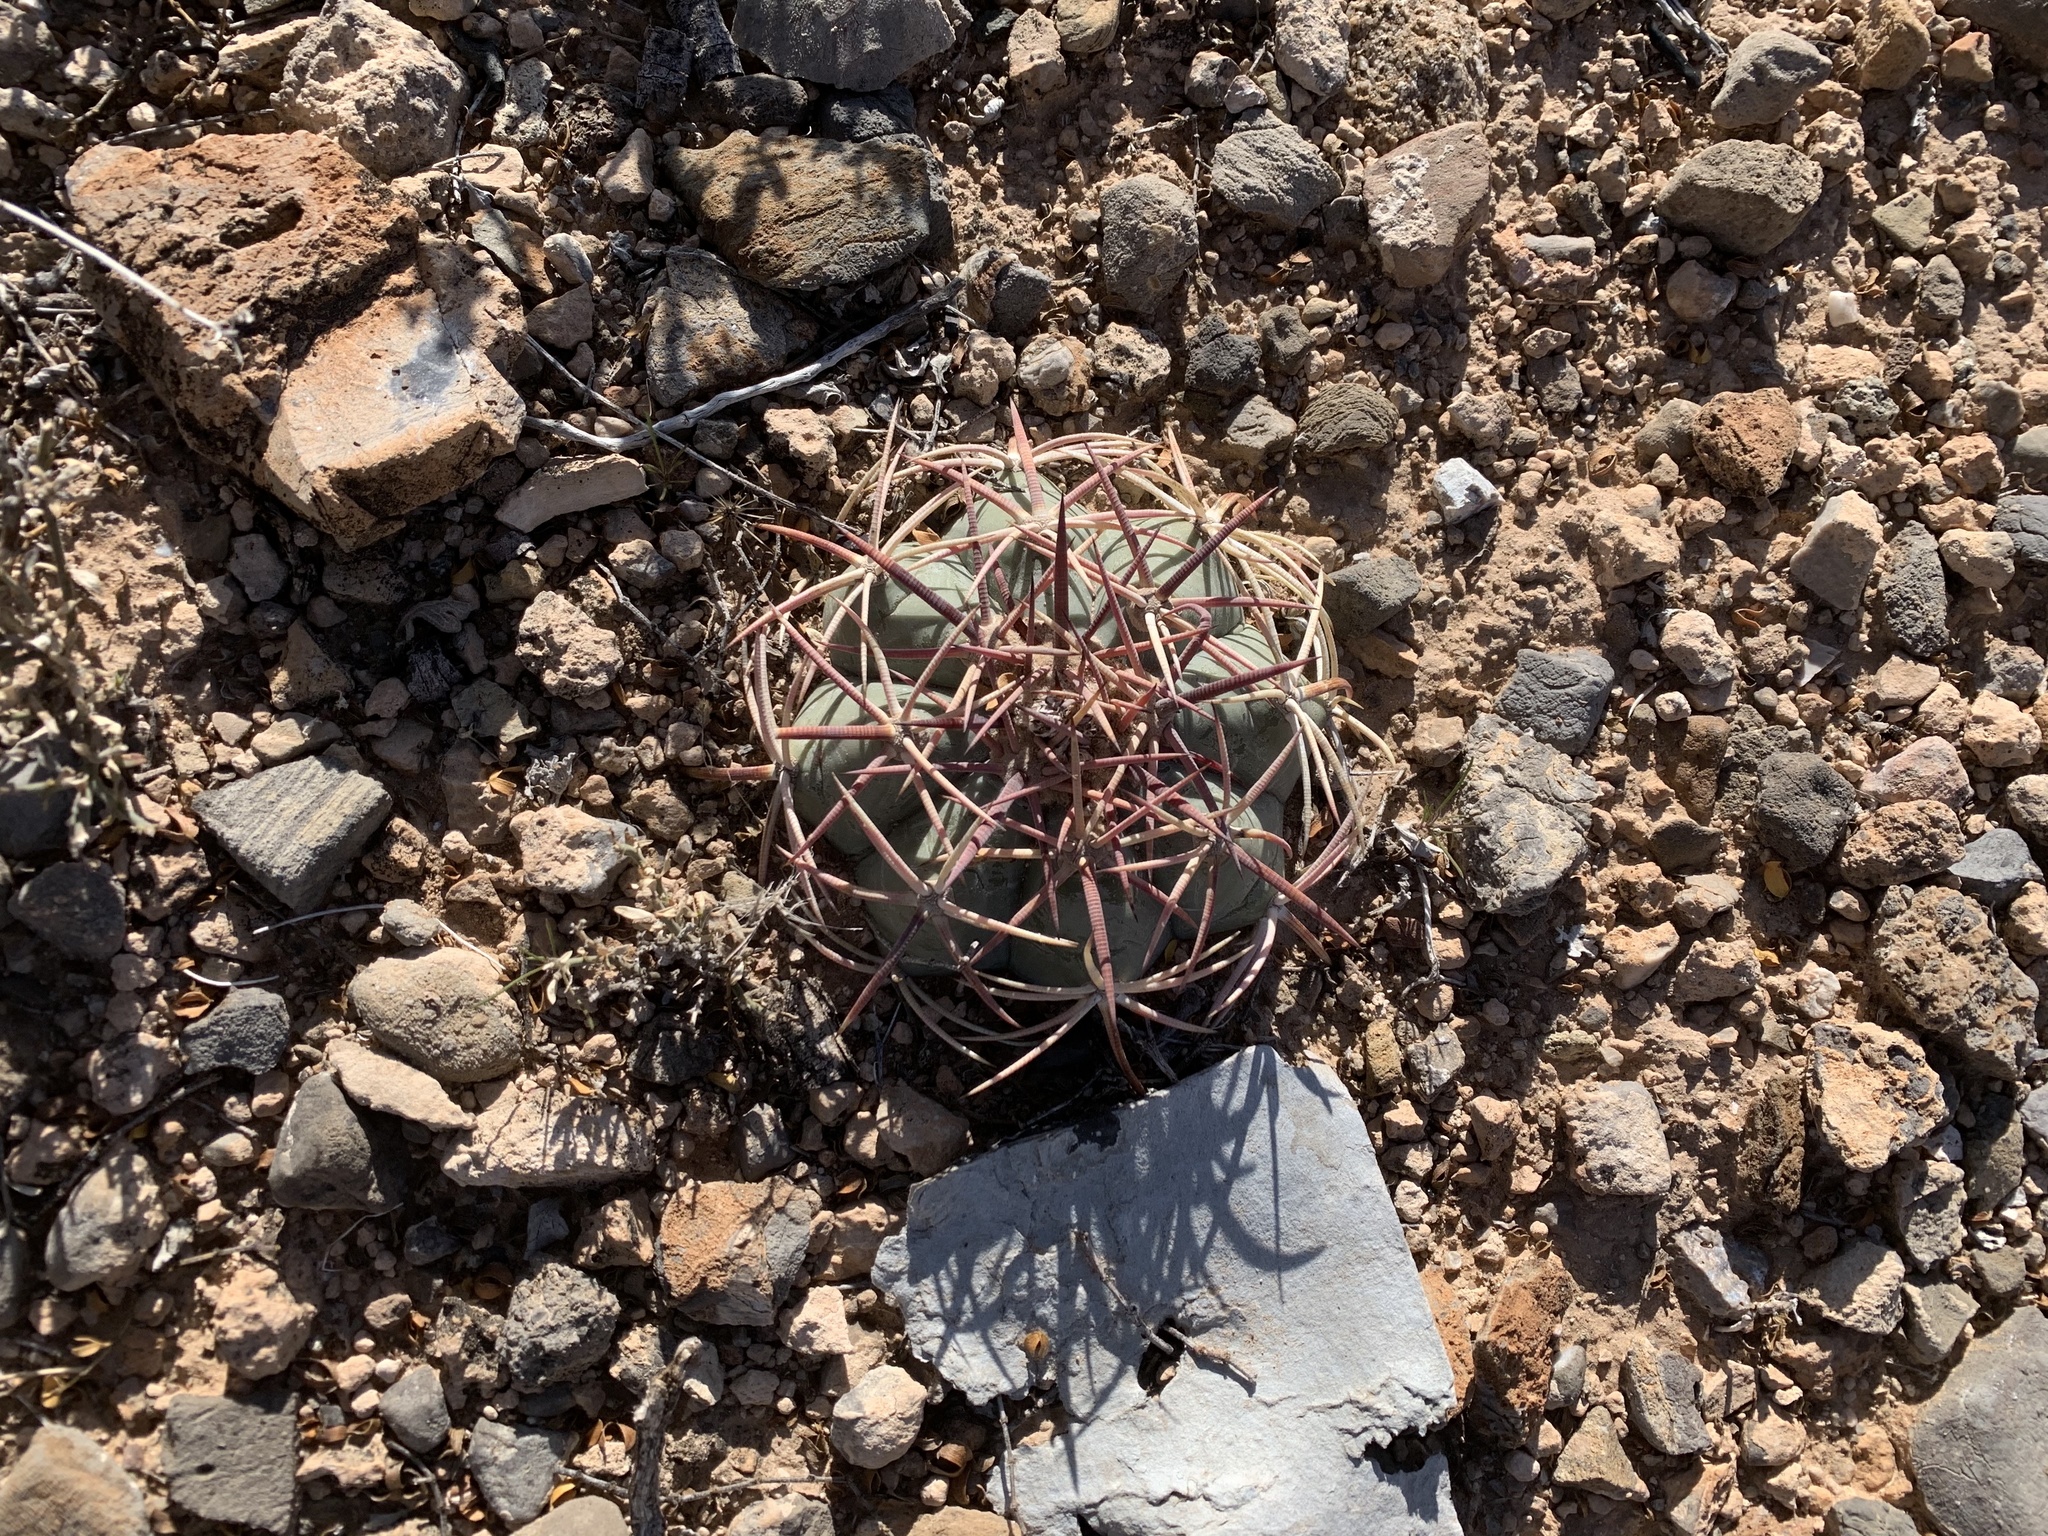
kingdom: Plantae
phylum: Tracheophyta
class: Magnoliopsida
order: Caryophyllales
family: Cactaceae
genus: Echinocactus
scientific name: Echinocactus horizonthalonius
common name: Devilshead
